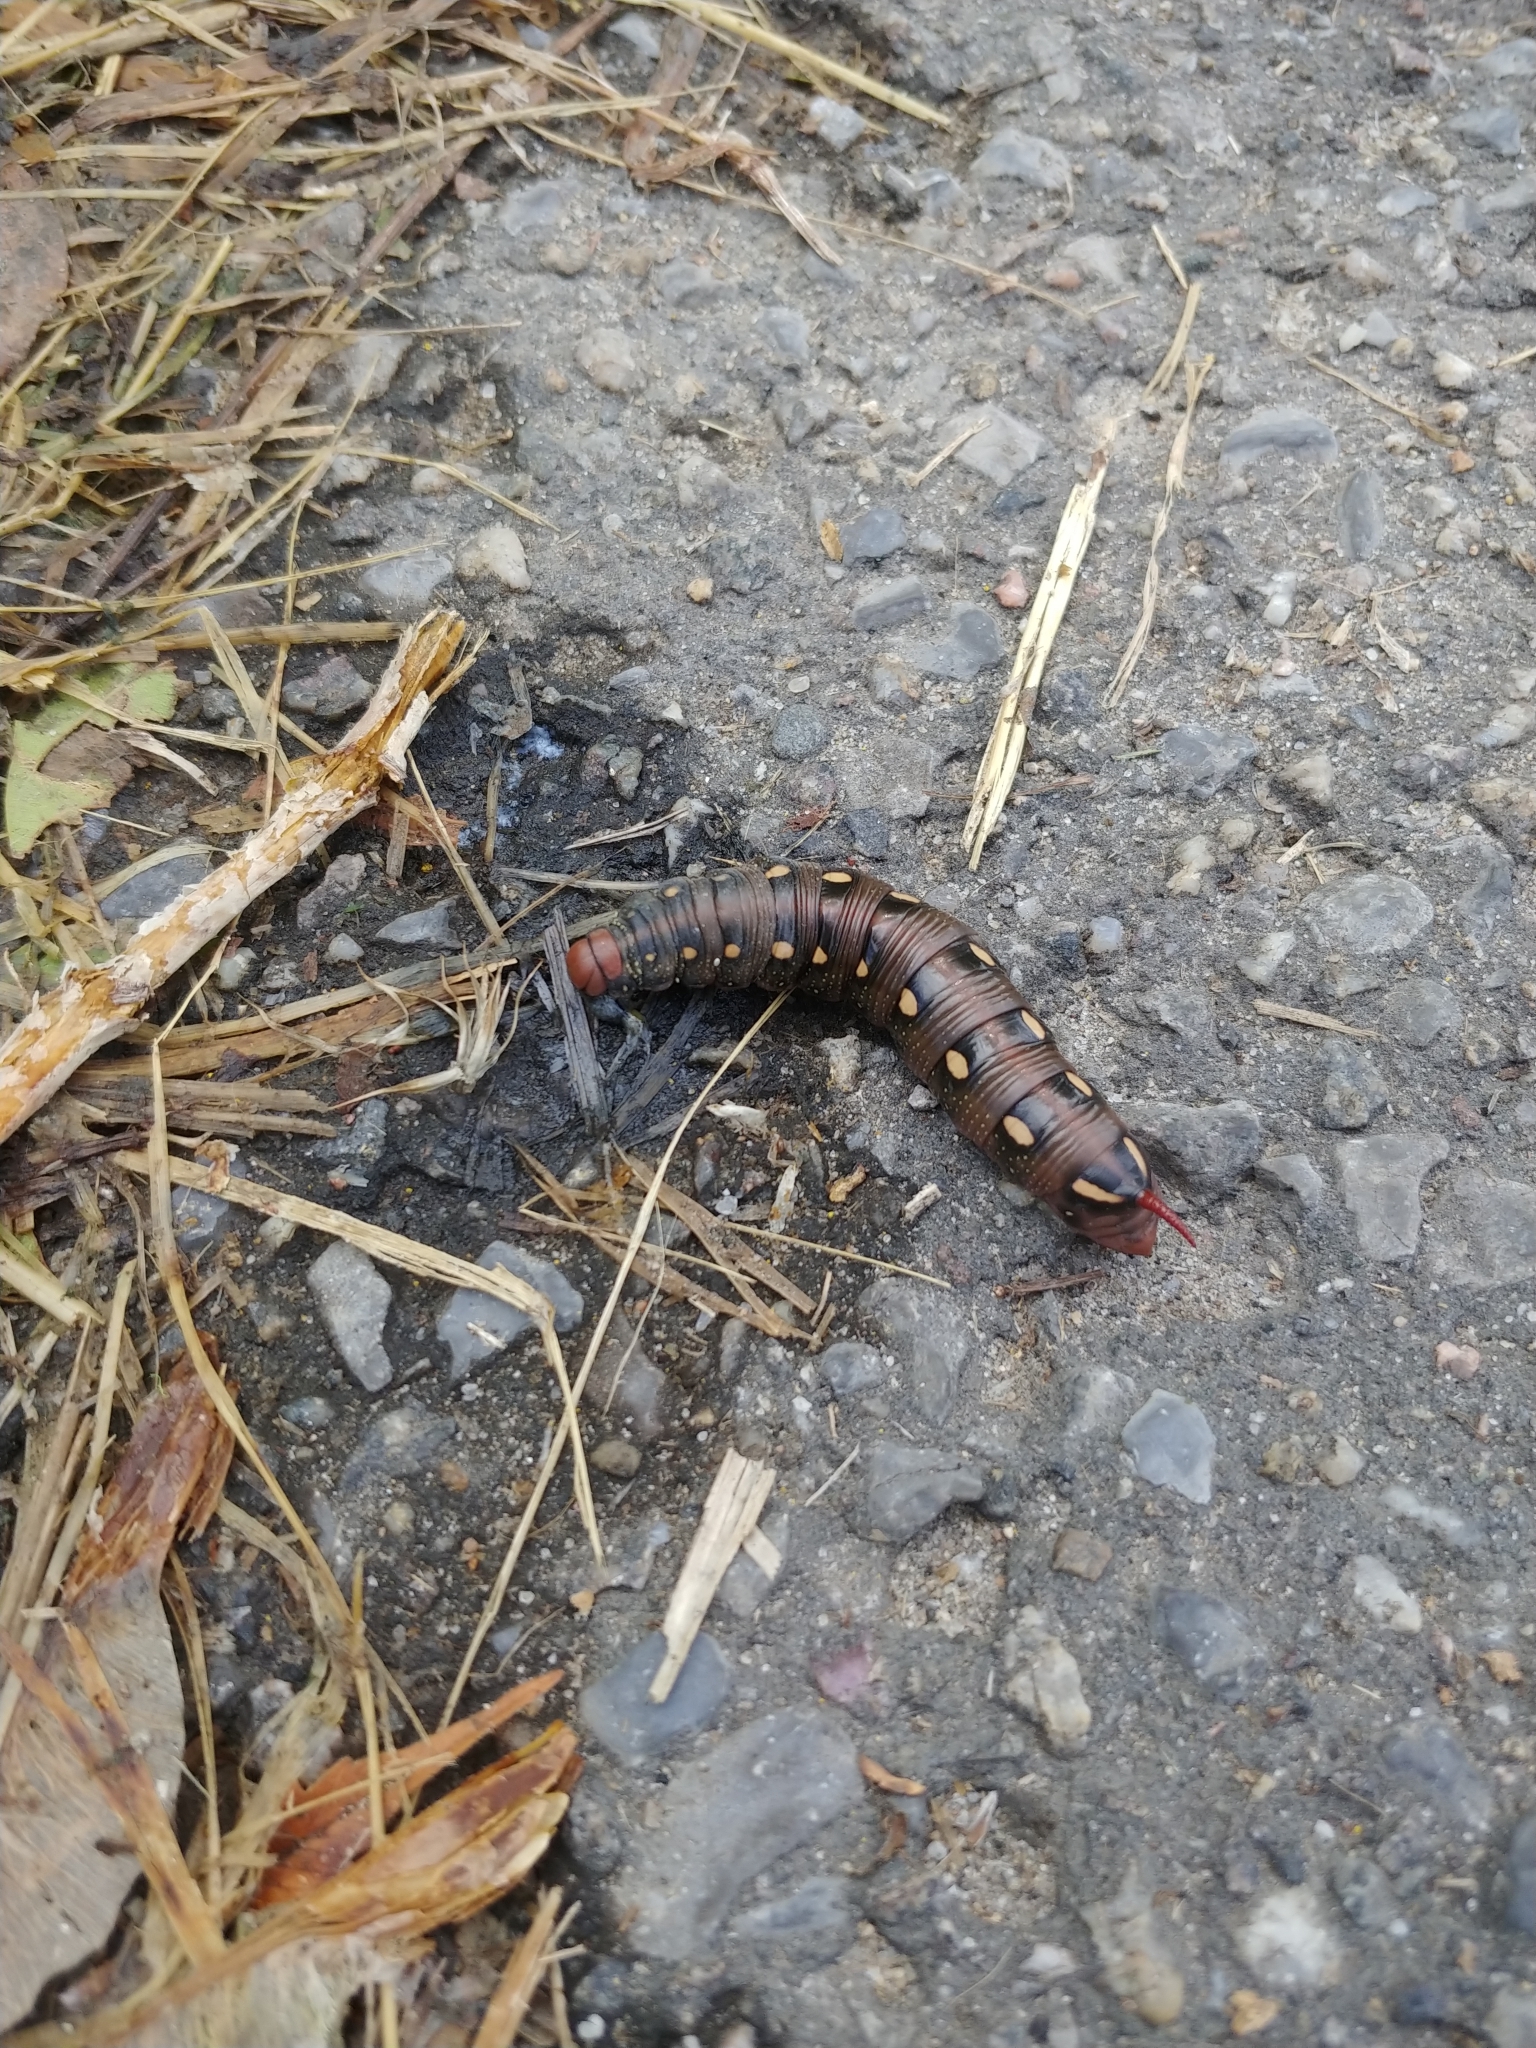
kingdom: Animalia
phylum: Arthropoda
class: Insecta
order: Lepidoptera
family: Sphingidae
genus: Hyles
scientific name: Hyles gallii
